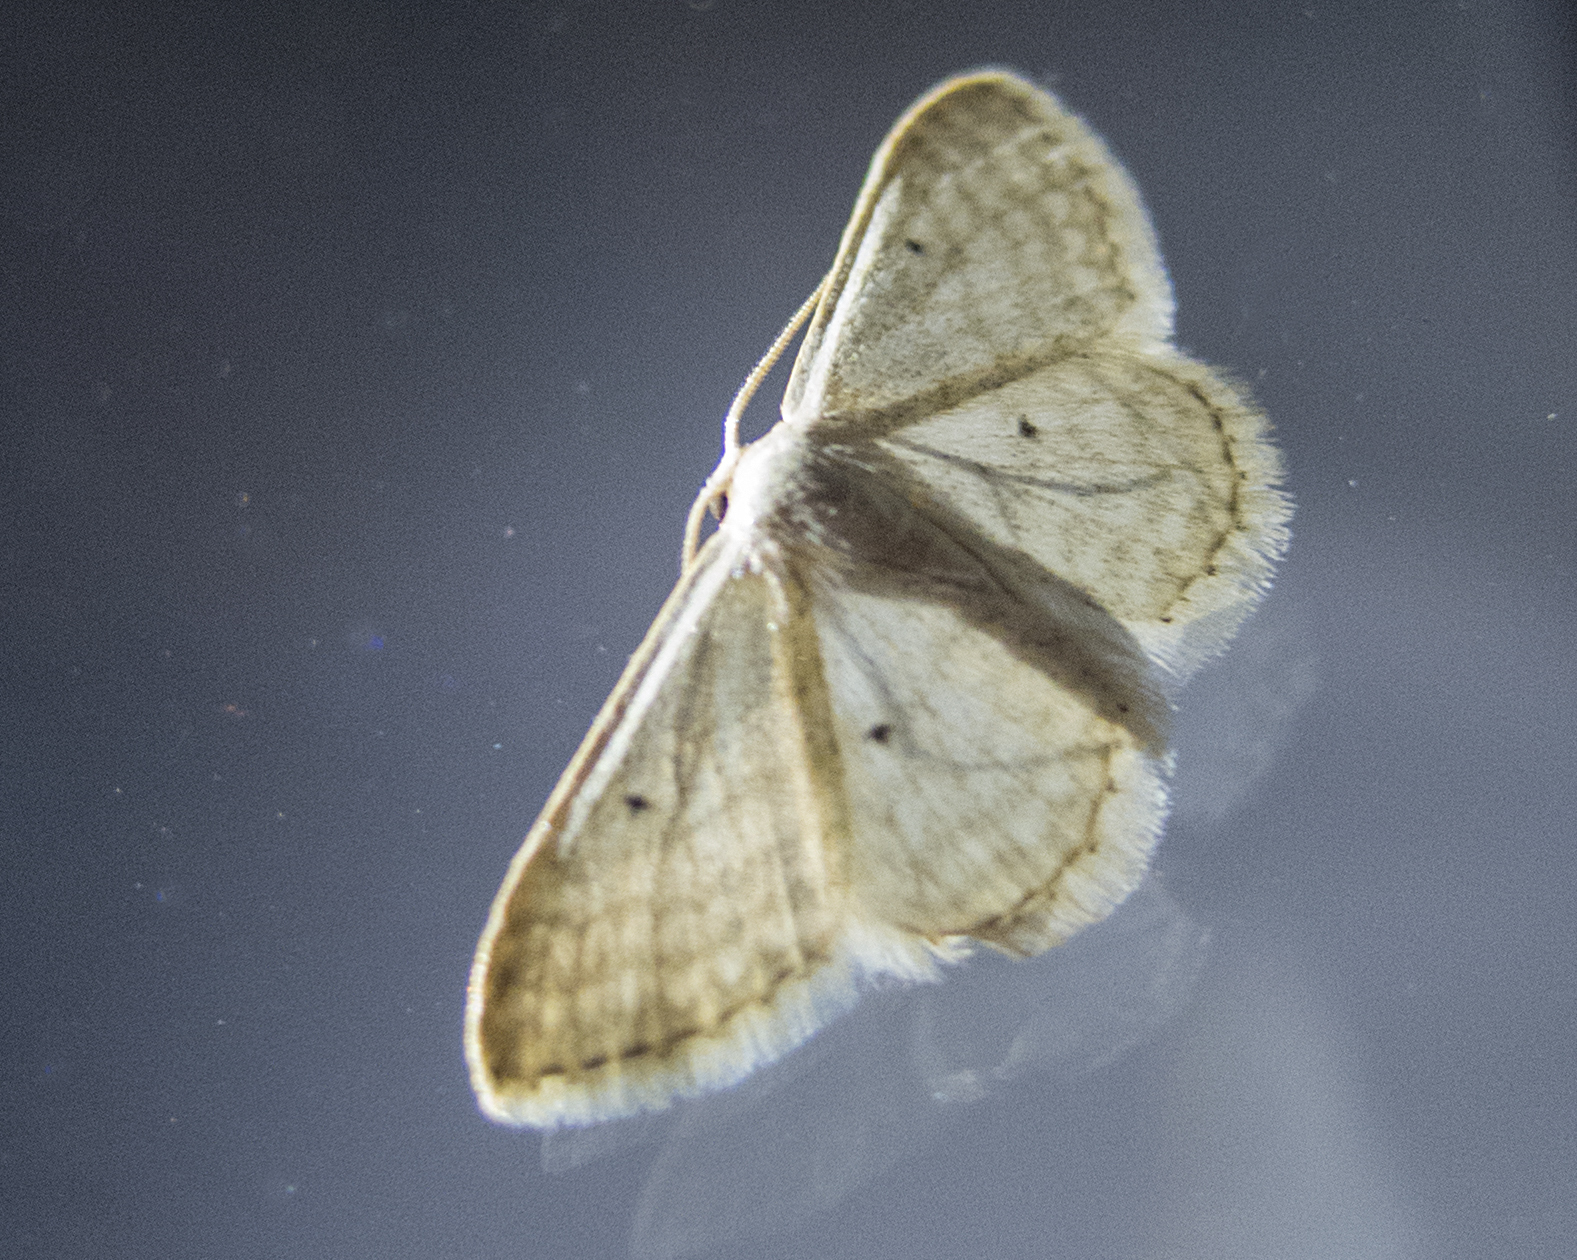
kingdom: Animalia
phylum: Arthropoda
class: Insecta
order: Lepidoptera
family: Geometridae
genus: Idaea
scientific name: Idaea sylvestraria
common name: Dotted borded wave
